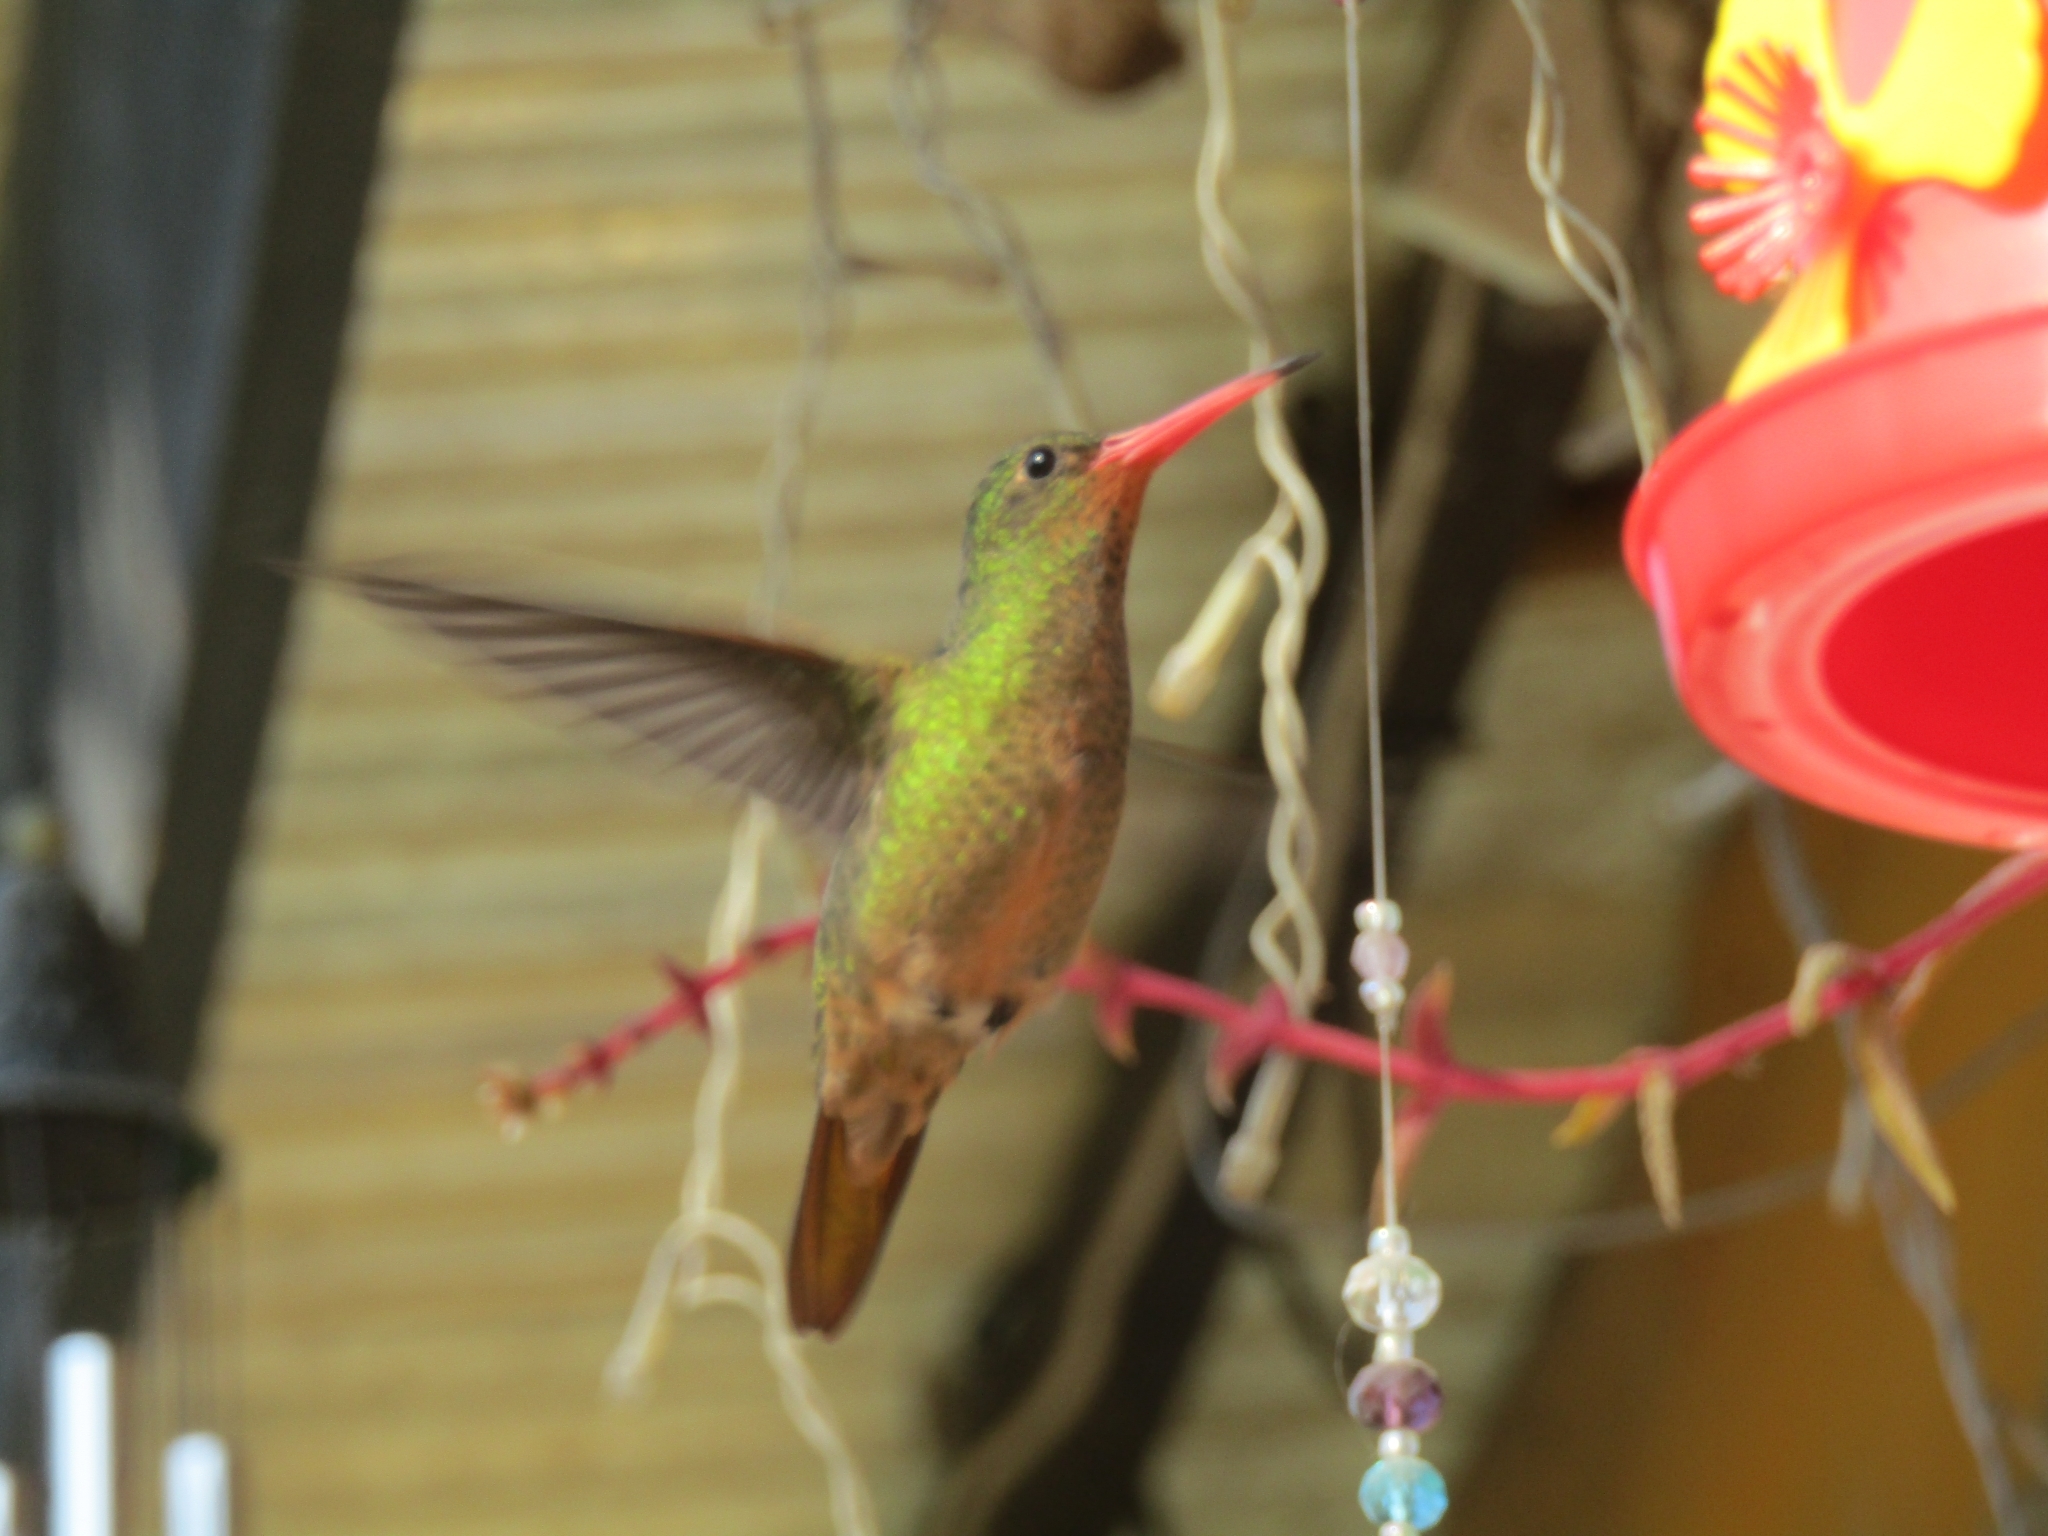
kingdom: Animalia
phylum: Chordata
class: Aves
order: Apodiformes
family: Trochilidae
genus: Hylocharis
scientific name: Hylocharis chrysura
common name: Gilded sapphire
